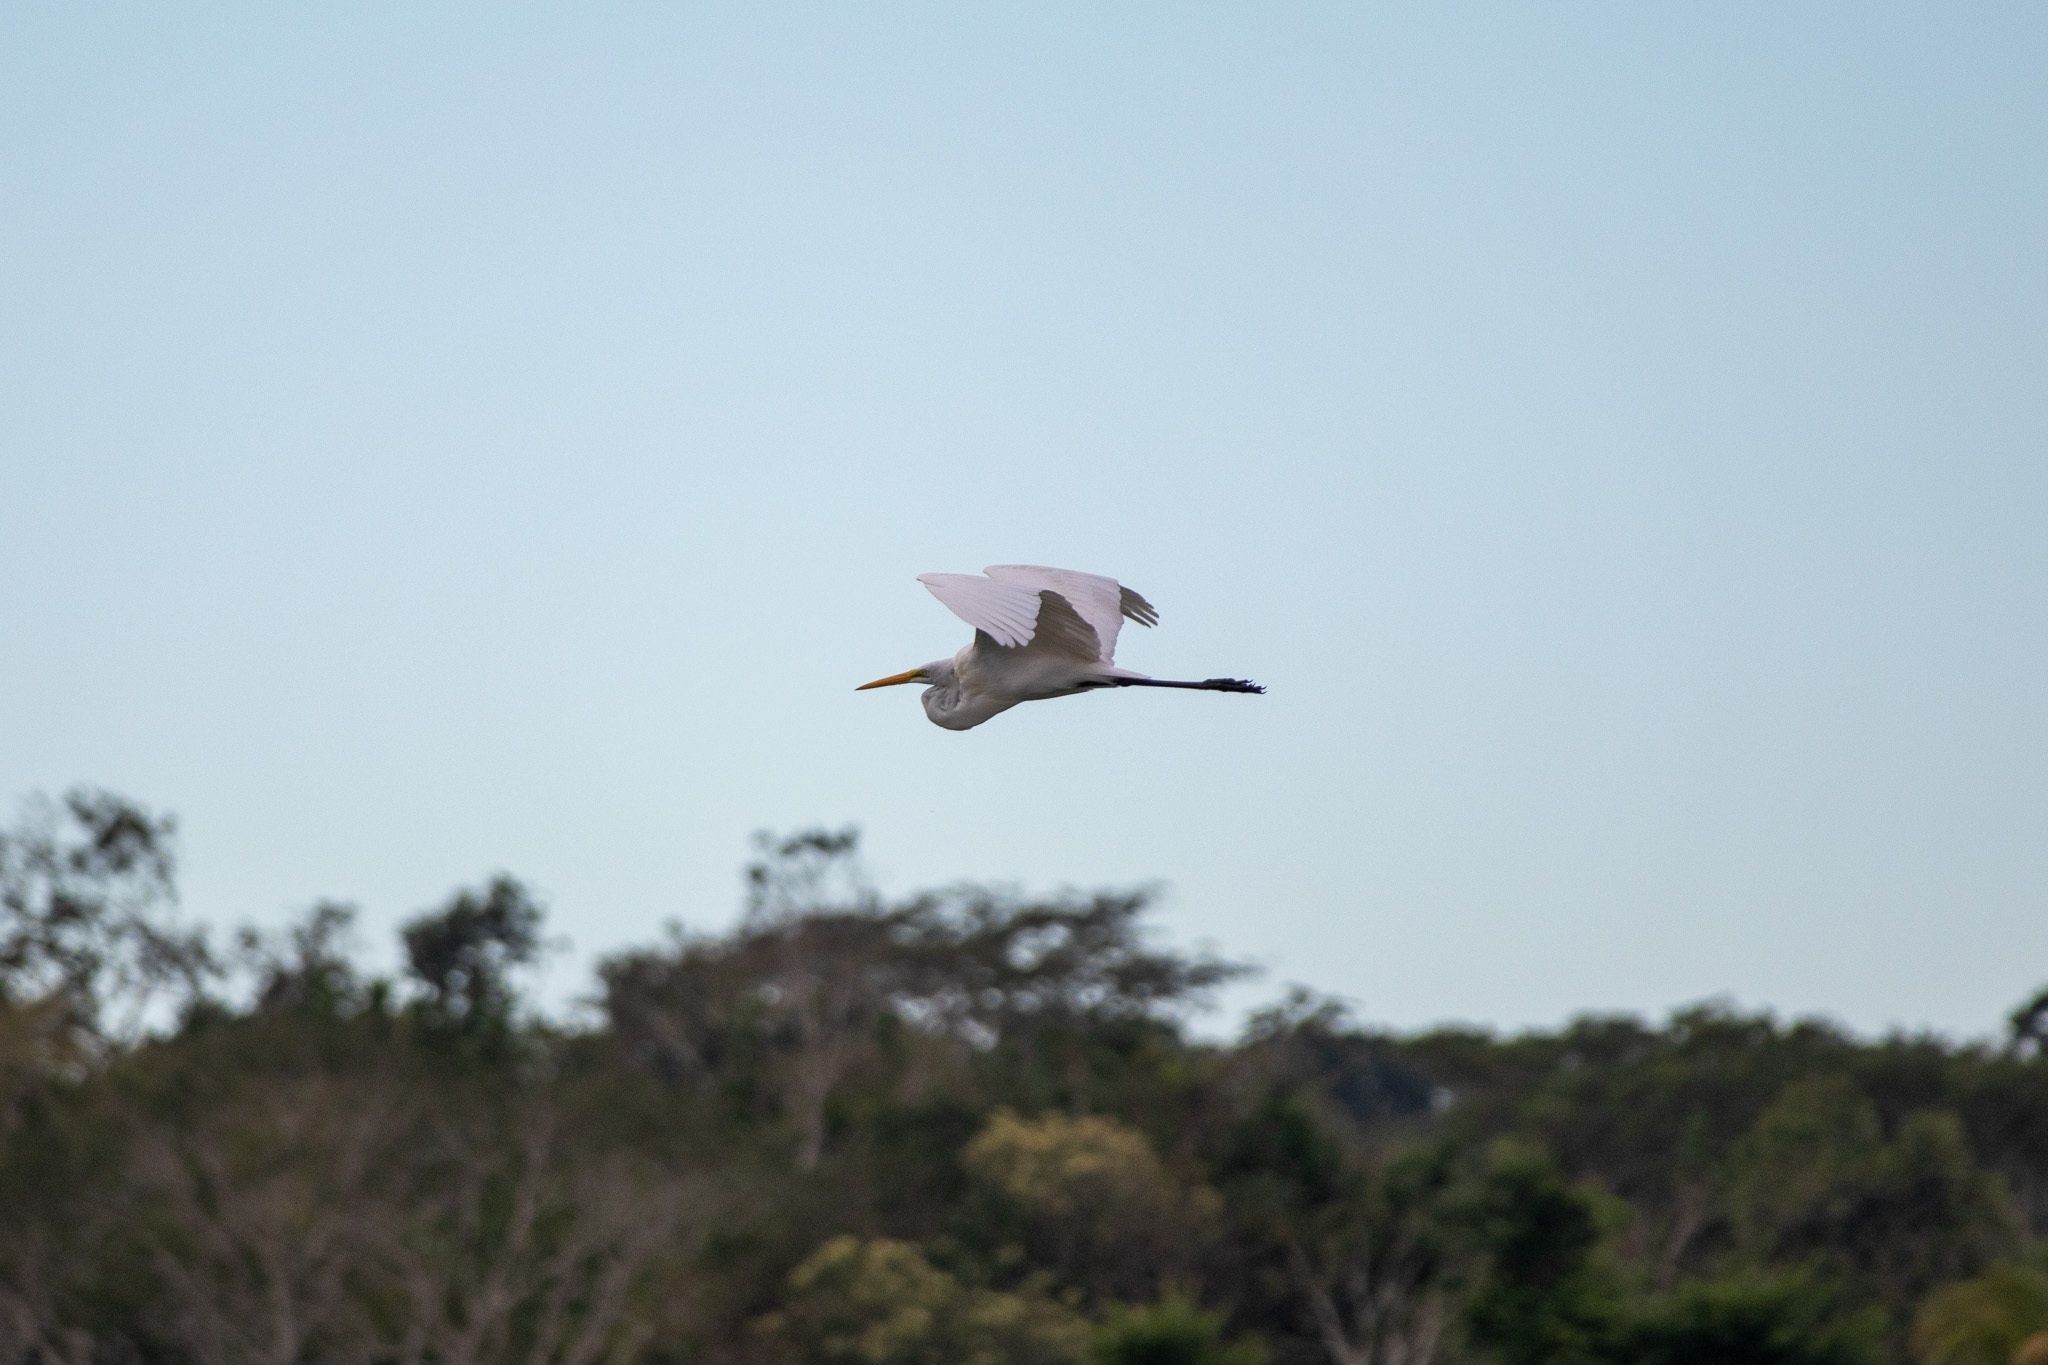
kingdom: Animalia
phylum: Chordata
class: Aves
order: Pelecaniformes
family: Ardeidae
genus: Ardea
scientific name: Ardea alba
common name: Great egret
